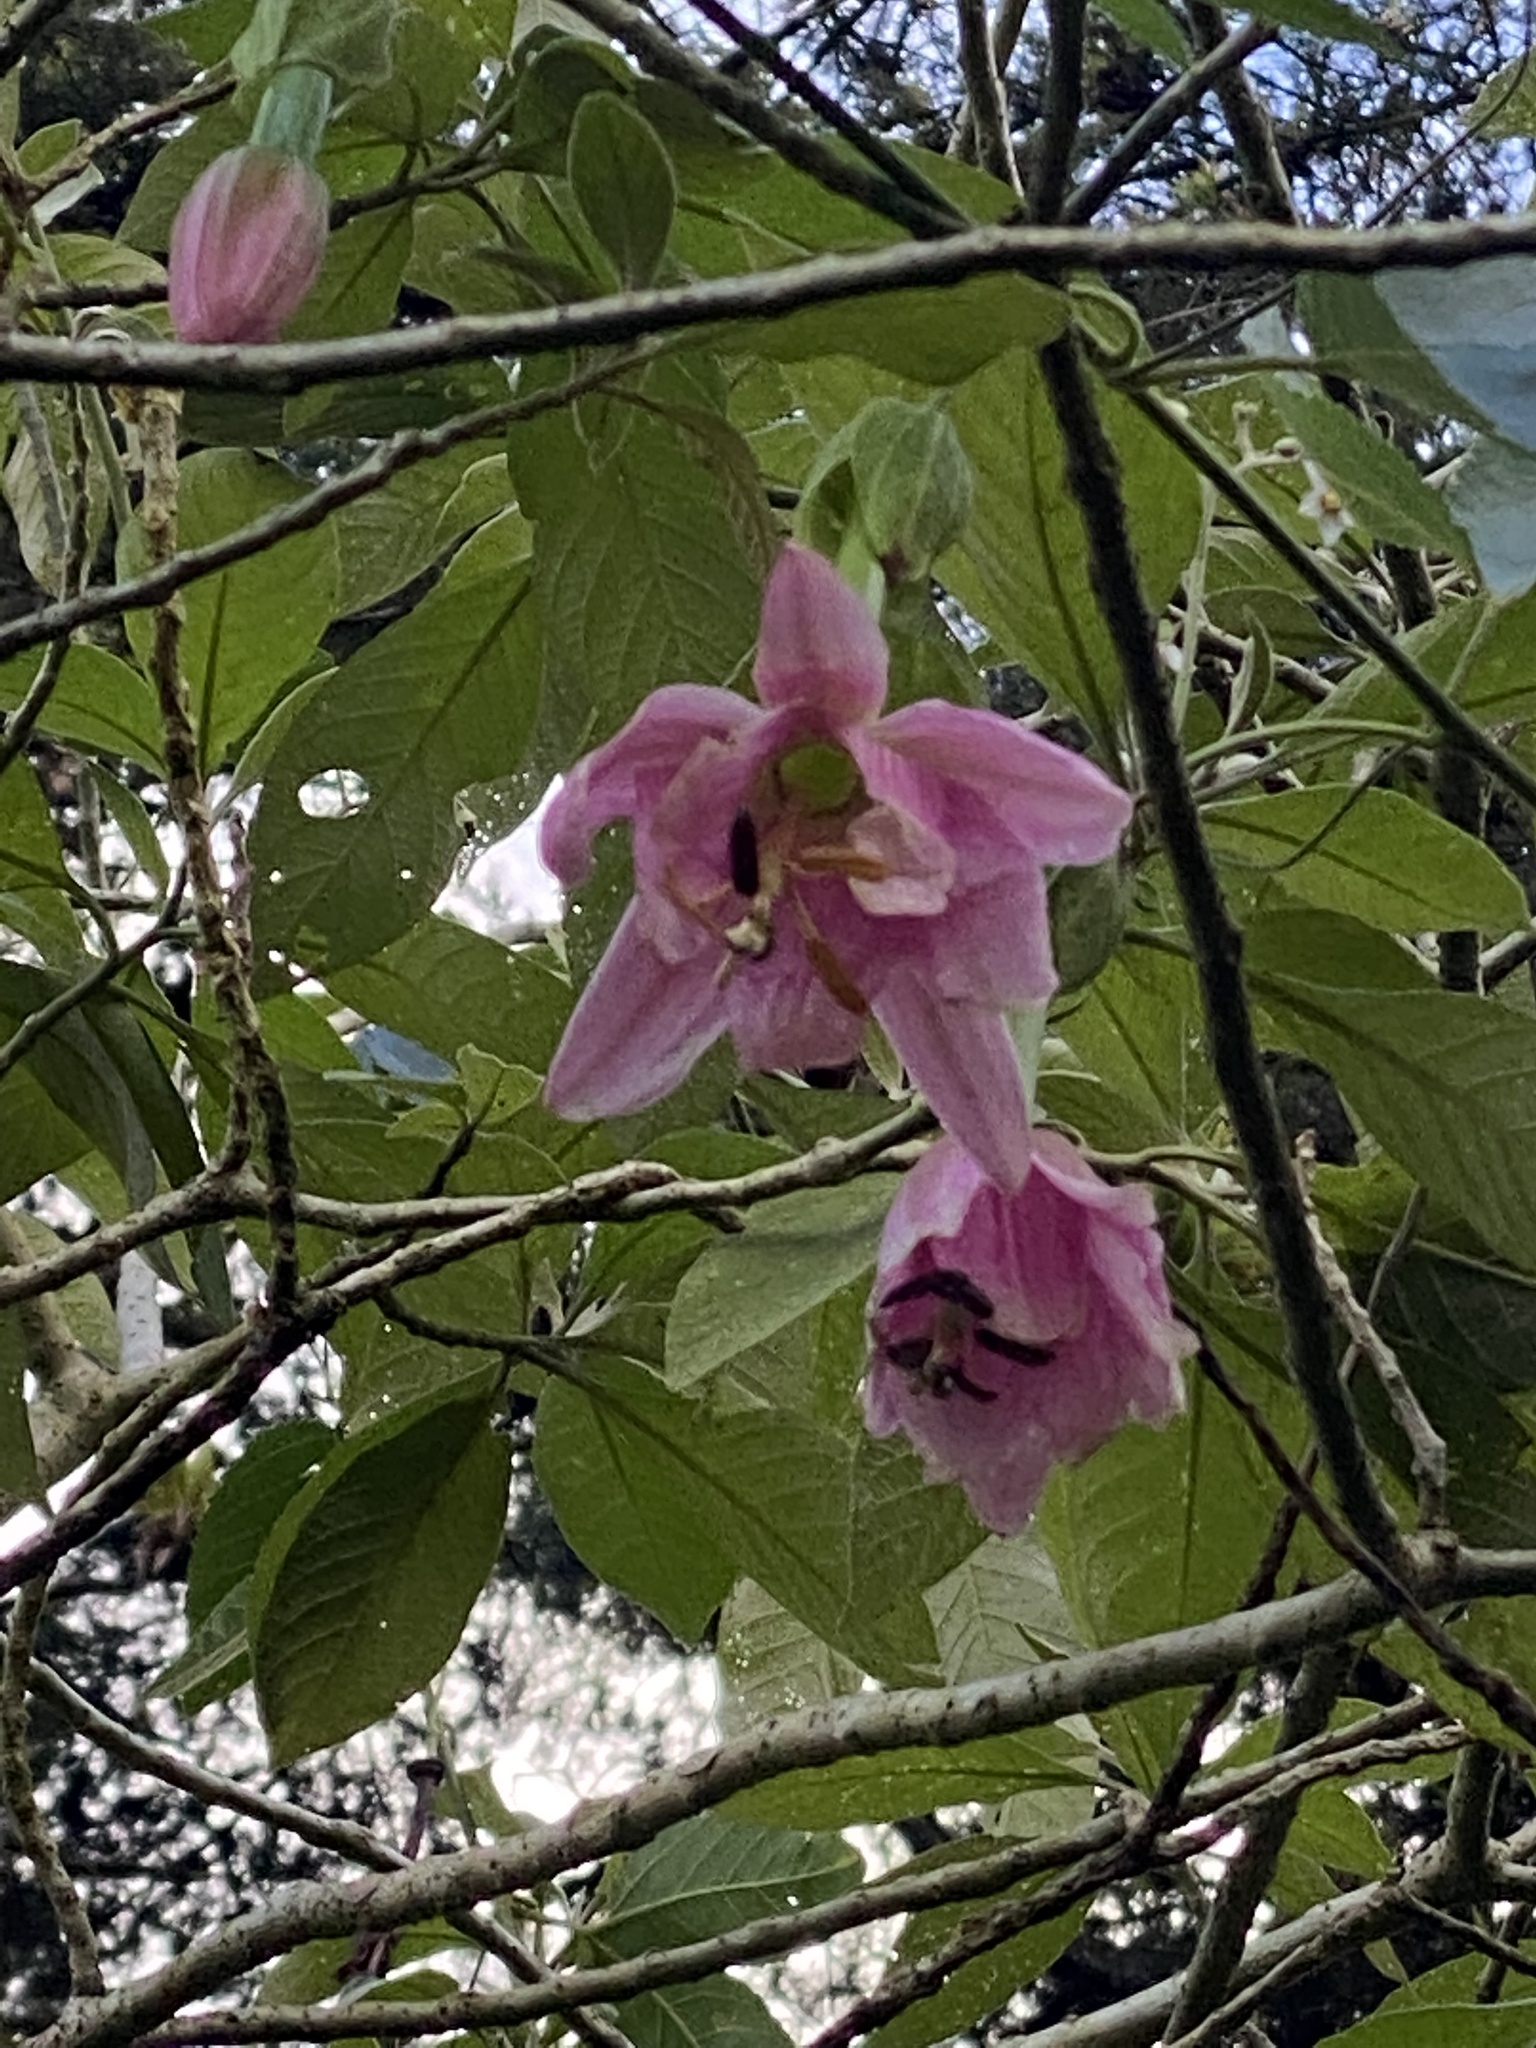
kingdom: Plantae
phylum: Tracheophyta
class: Magnoliopsida
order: Malpighiales
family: Passifloraceae
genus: Passiflora
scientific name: Passiflora tarminiana
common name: Banana poka
